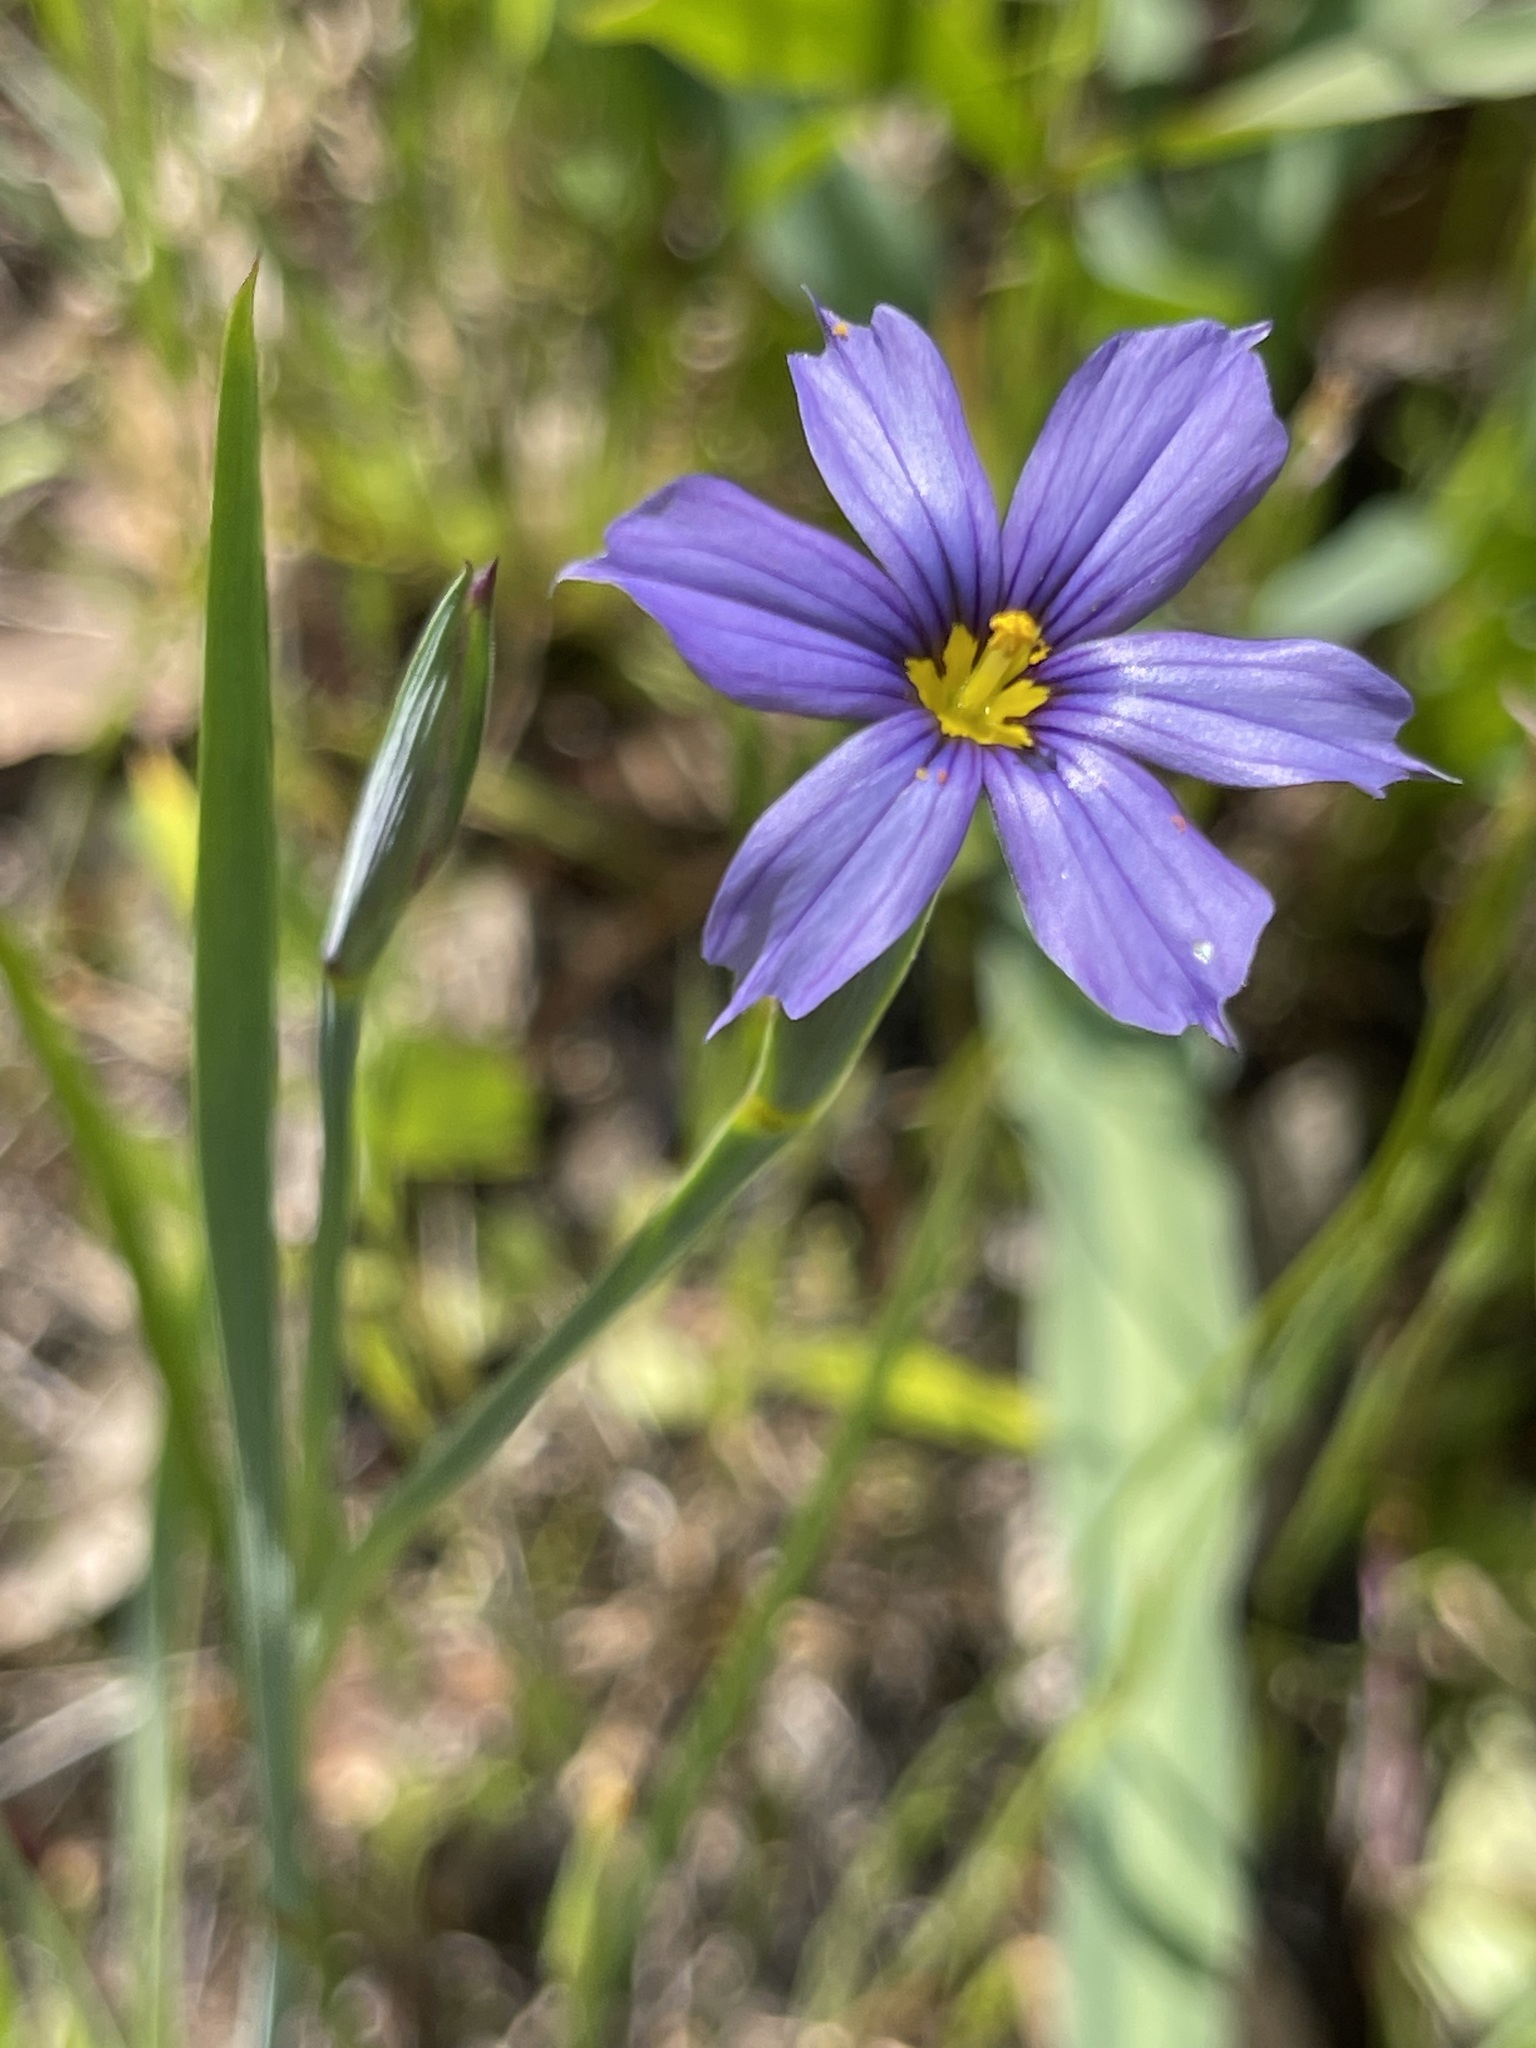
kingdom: Plantae
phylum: Tracheophyta
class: Liliopsida
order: Asparagales
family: Iridaceae
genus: Sisyrinchium
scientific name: Sisyrinchium bellum
